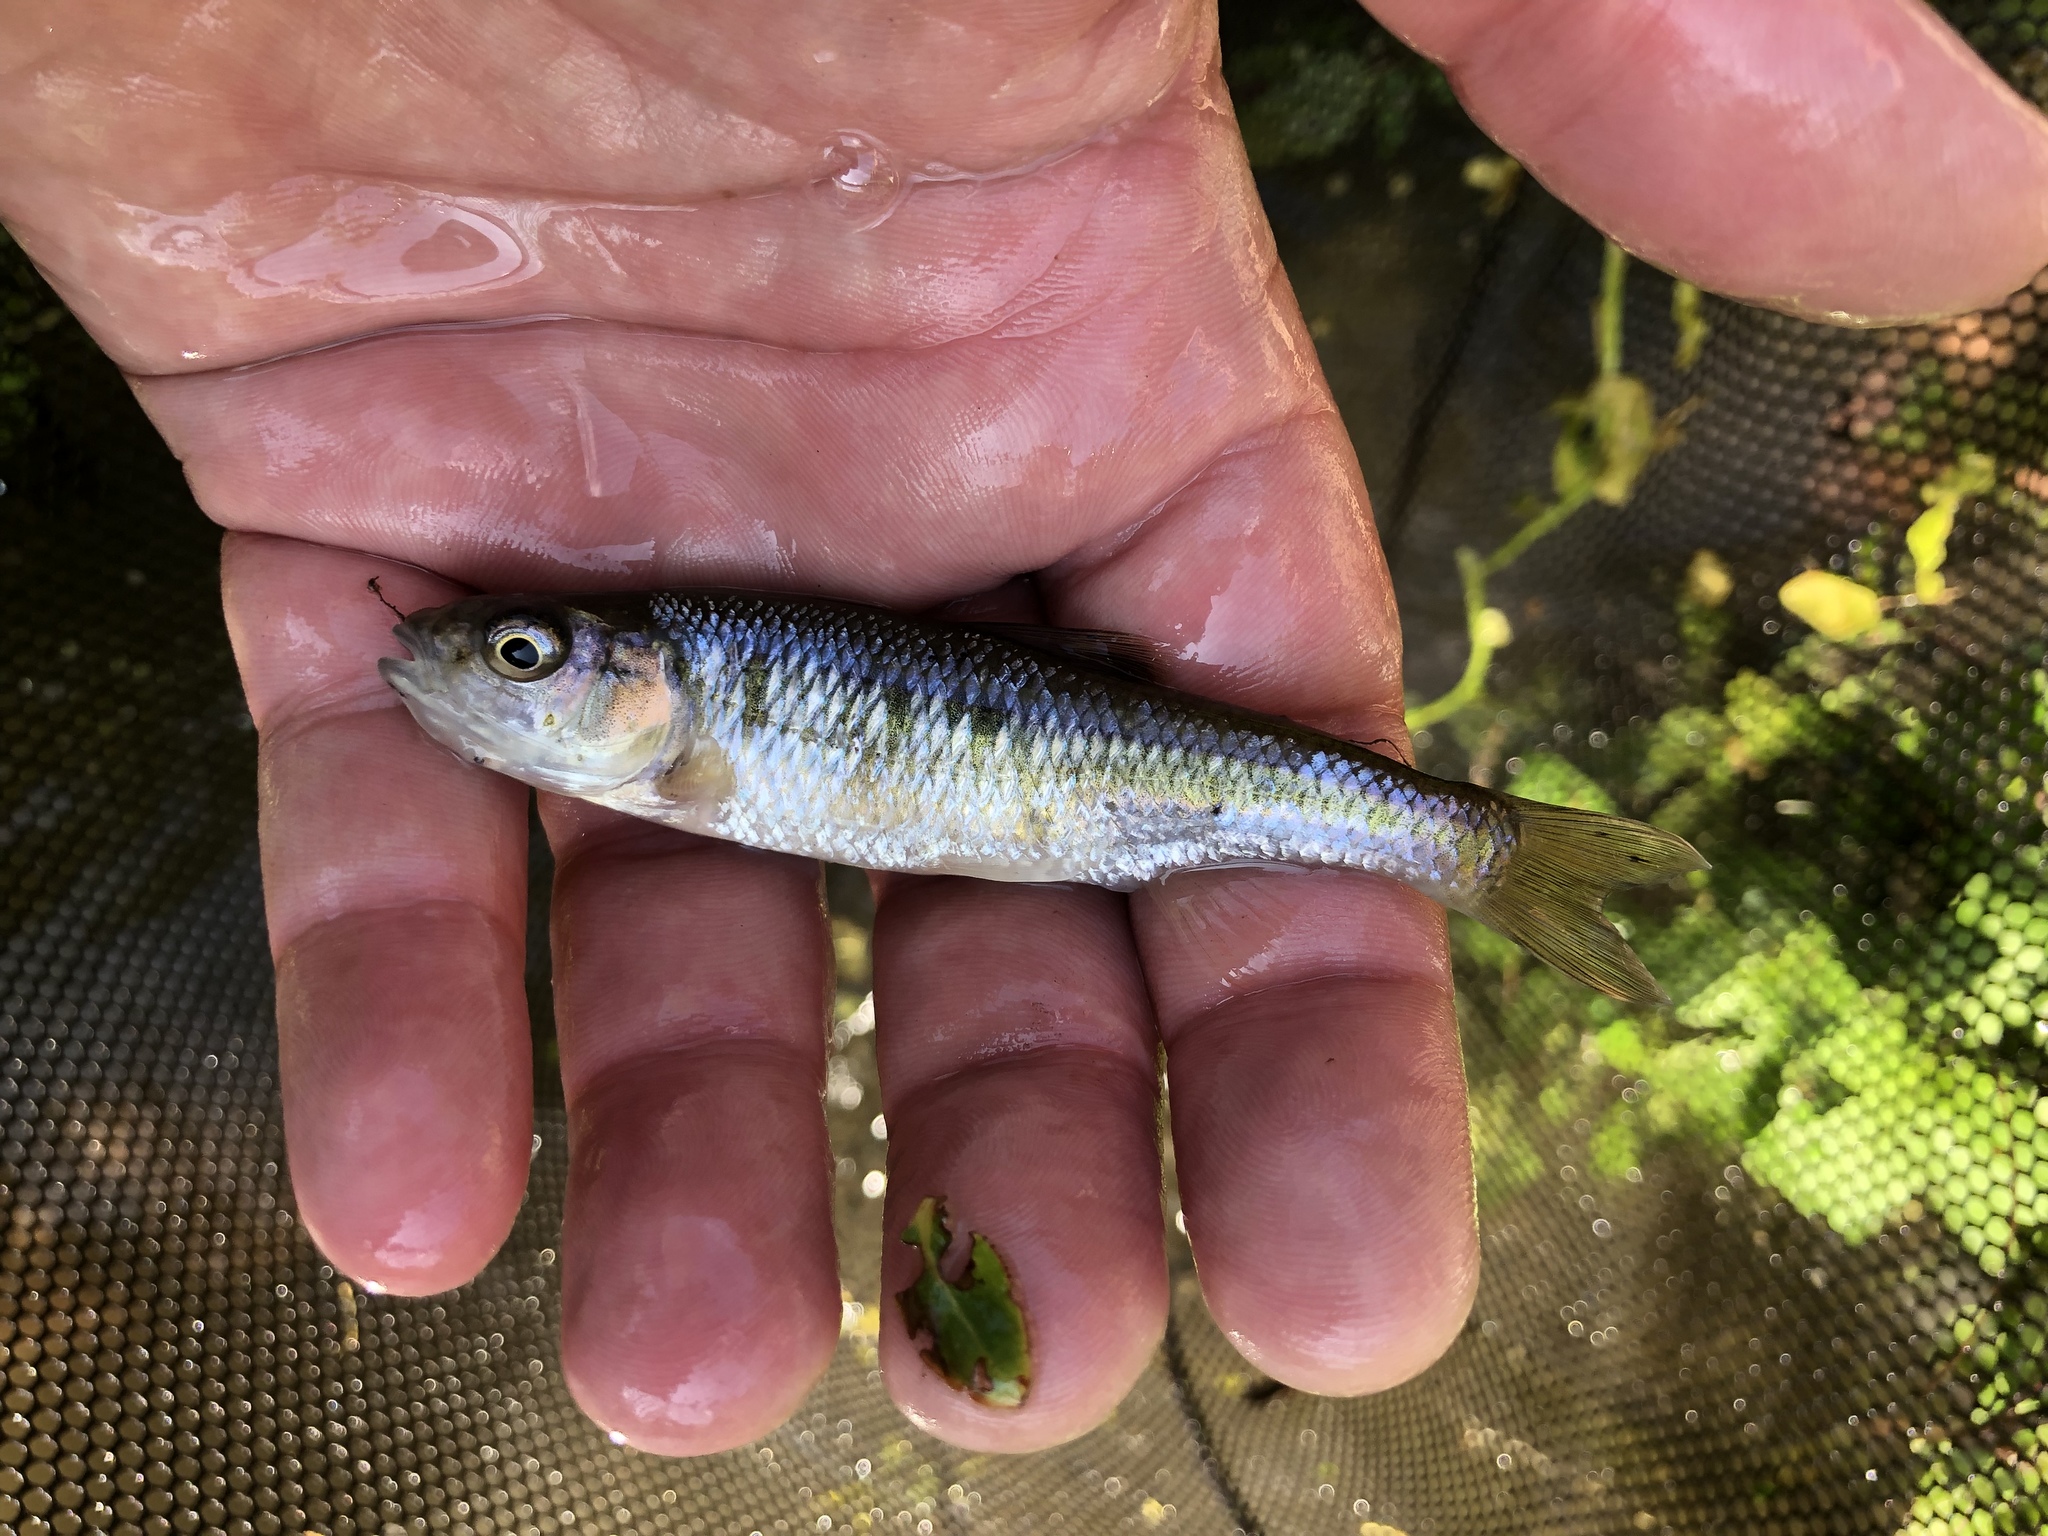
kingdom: Animalia
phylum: Chordata
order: Cypriniformes
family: Cyprinidae
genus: Luxilus
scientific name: Luxilus cornutus
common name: Common shiner
